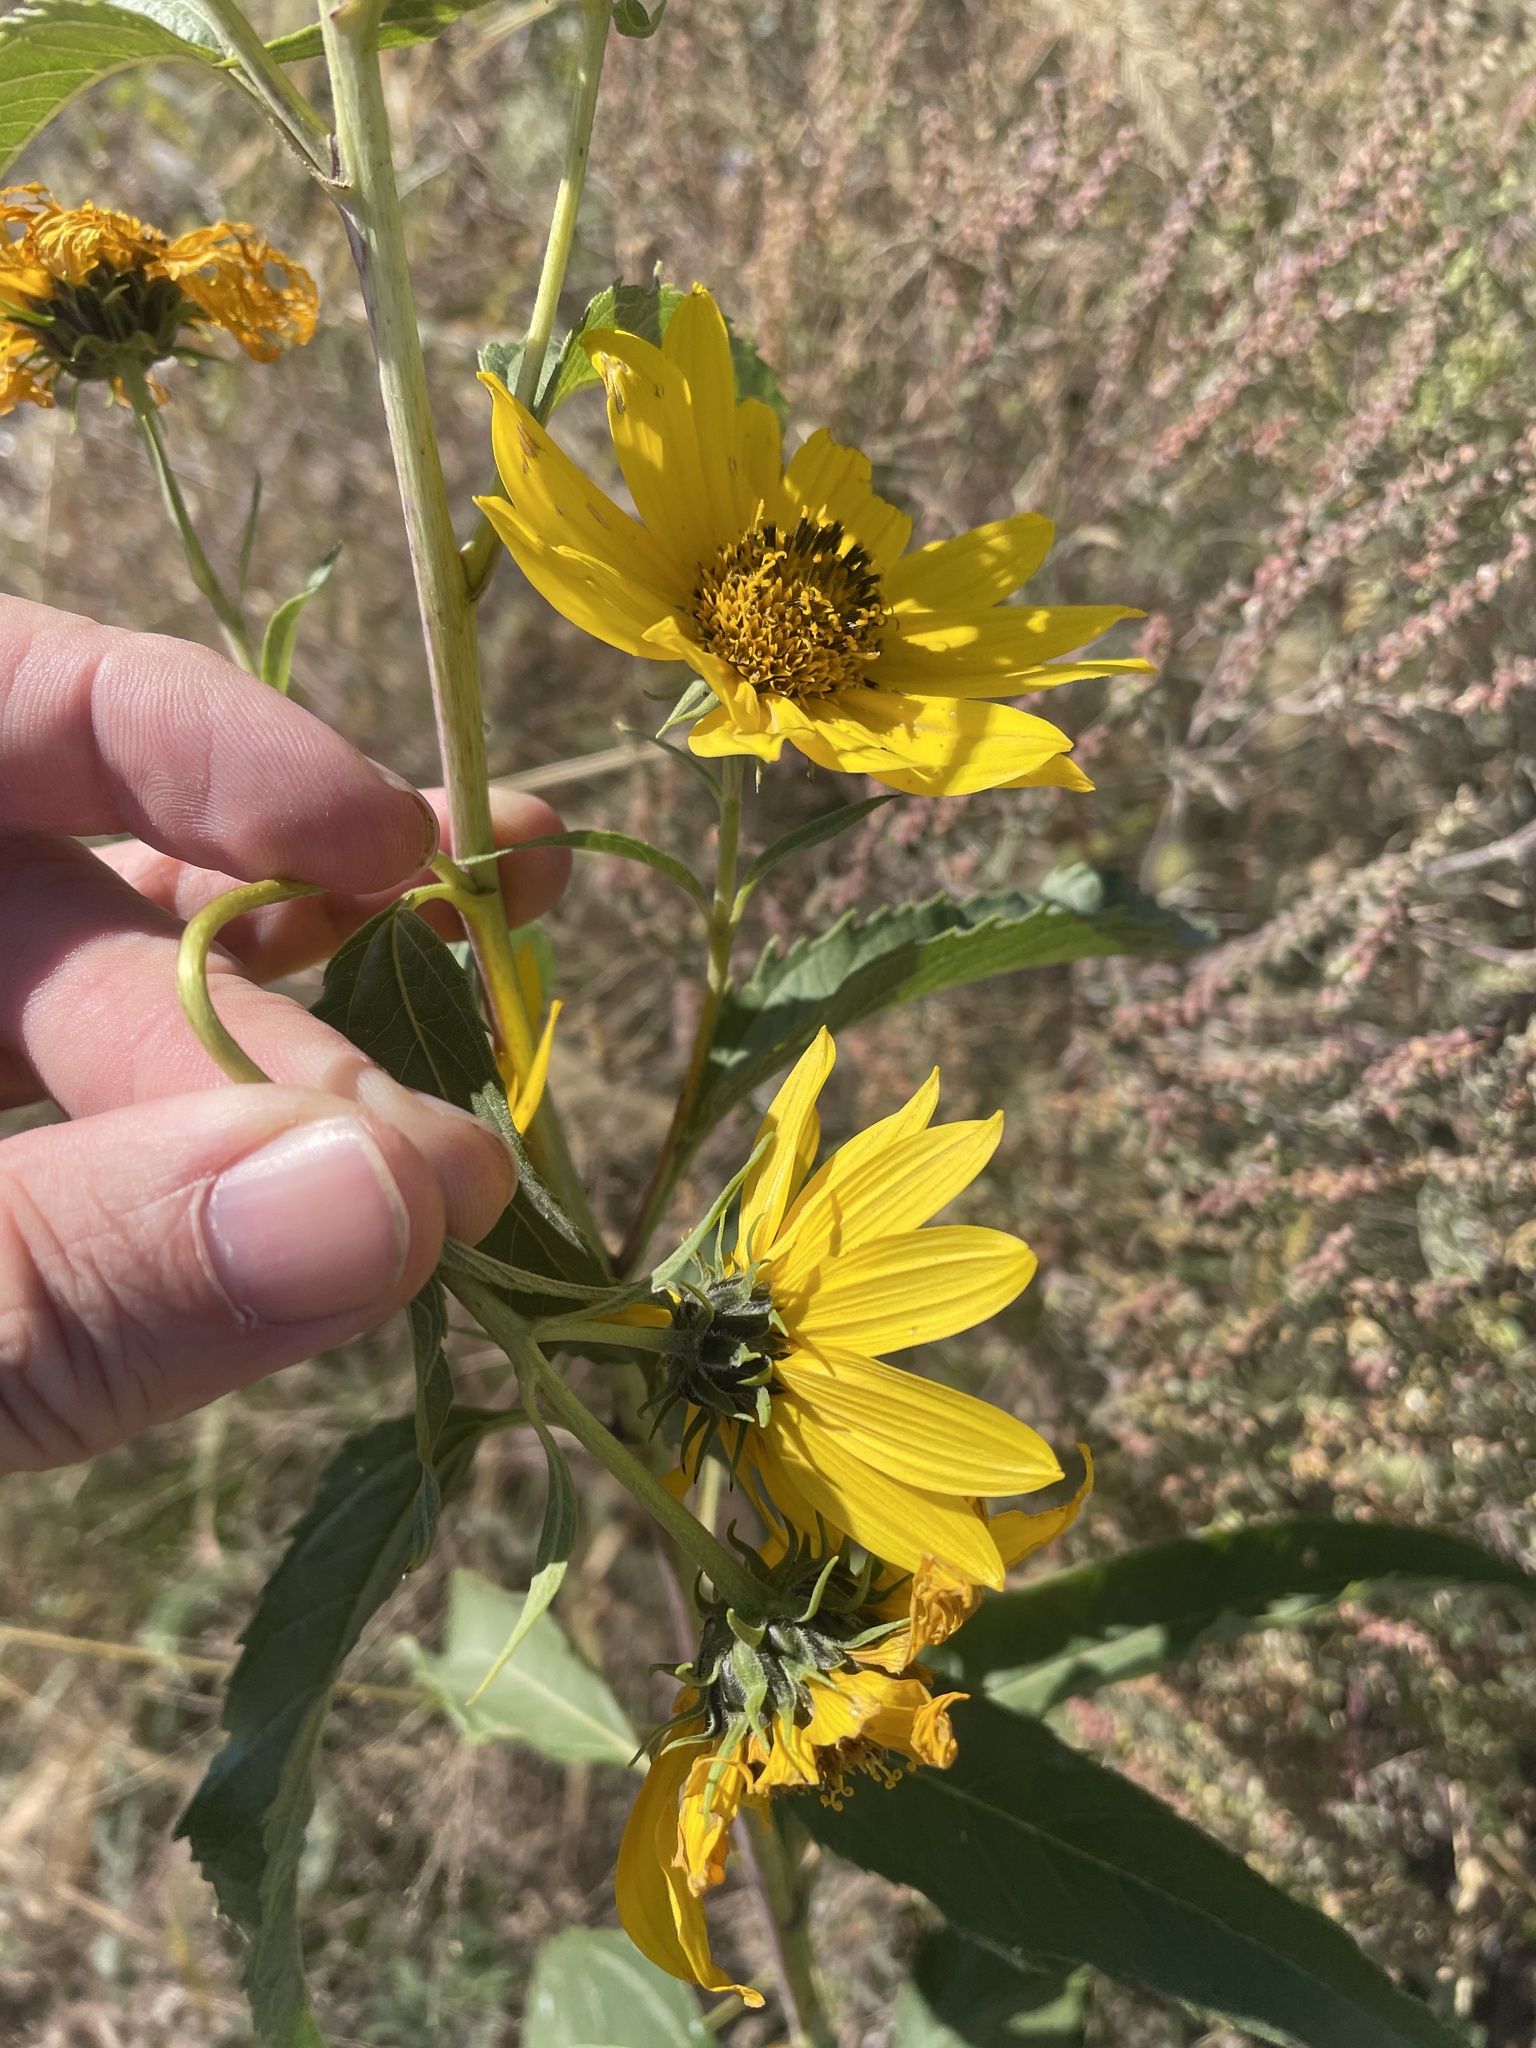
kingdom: Plantae
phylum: Tracheophyta
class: Magnoliopsida
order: Asterales
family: Asteraceae
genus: Helianthus
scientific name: Helianthus grosseserratus
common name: Sawtooth sunflower
